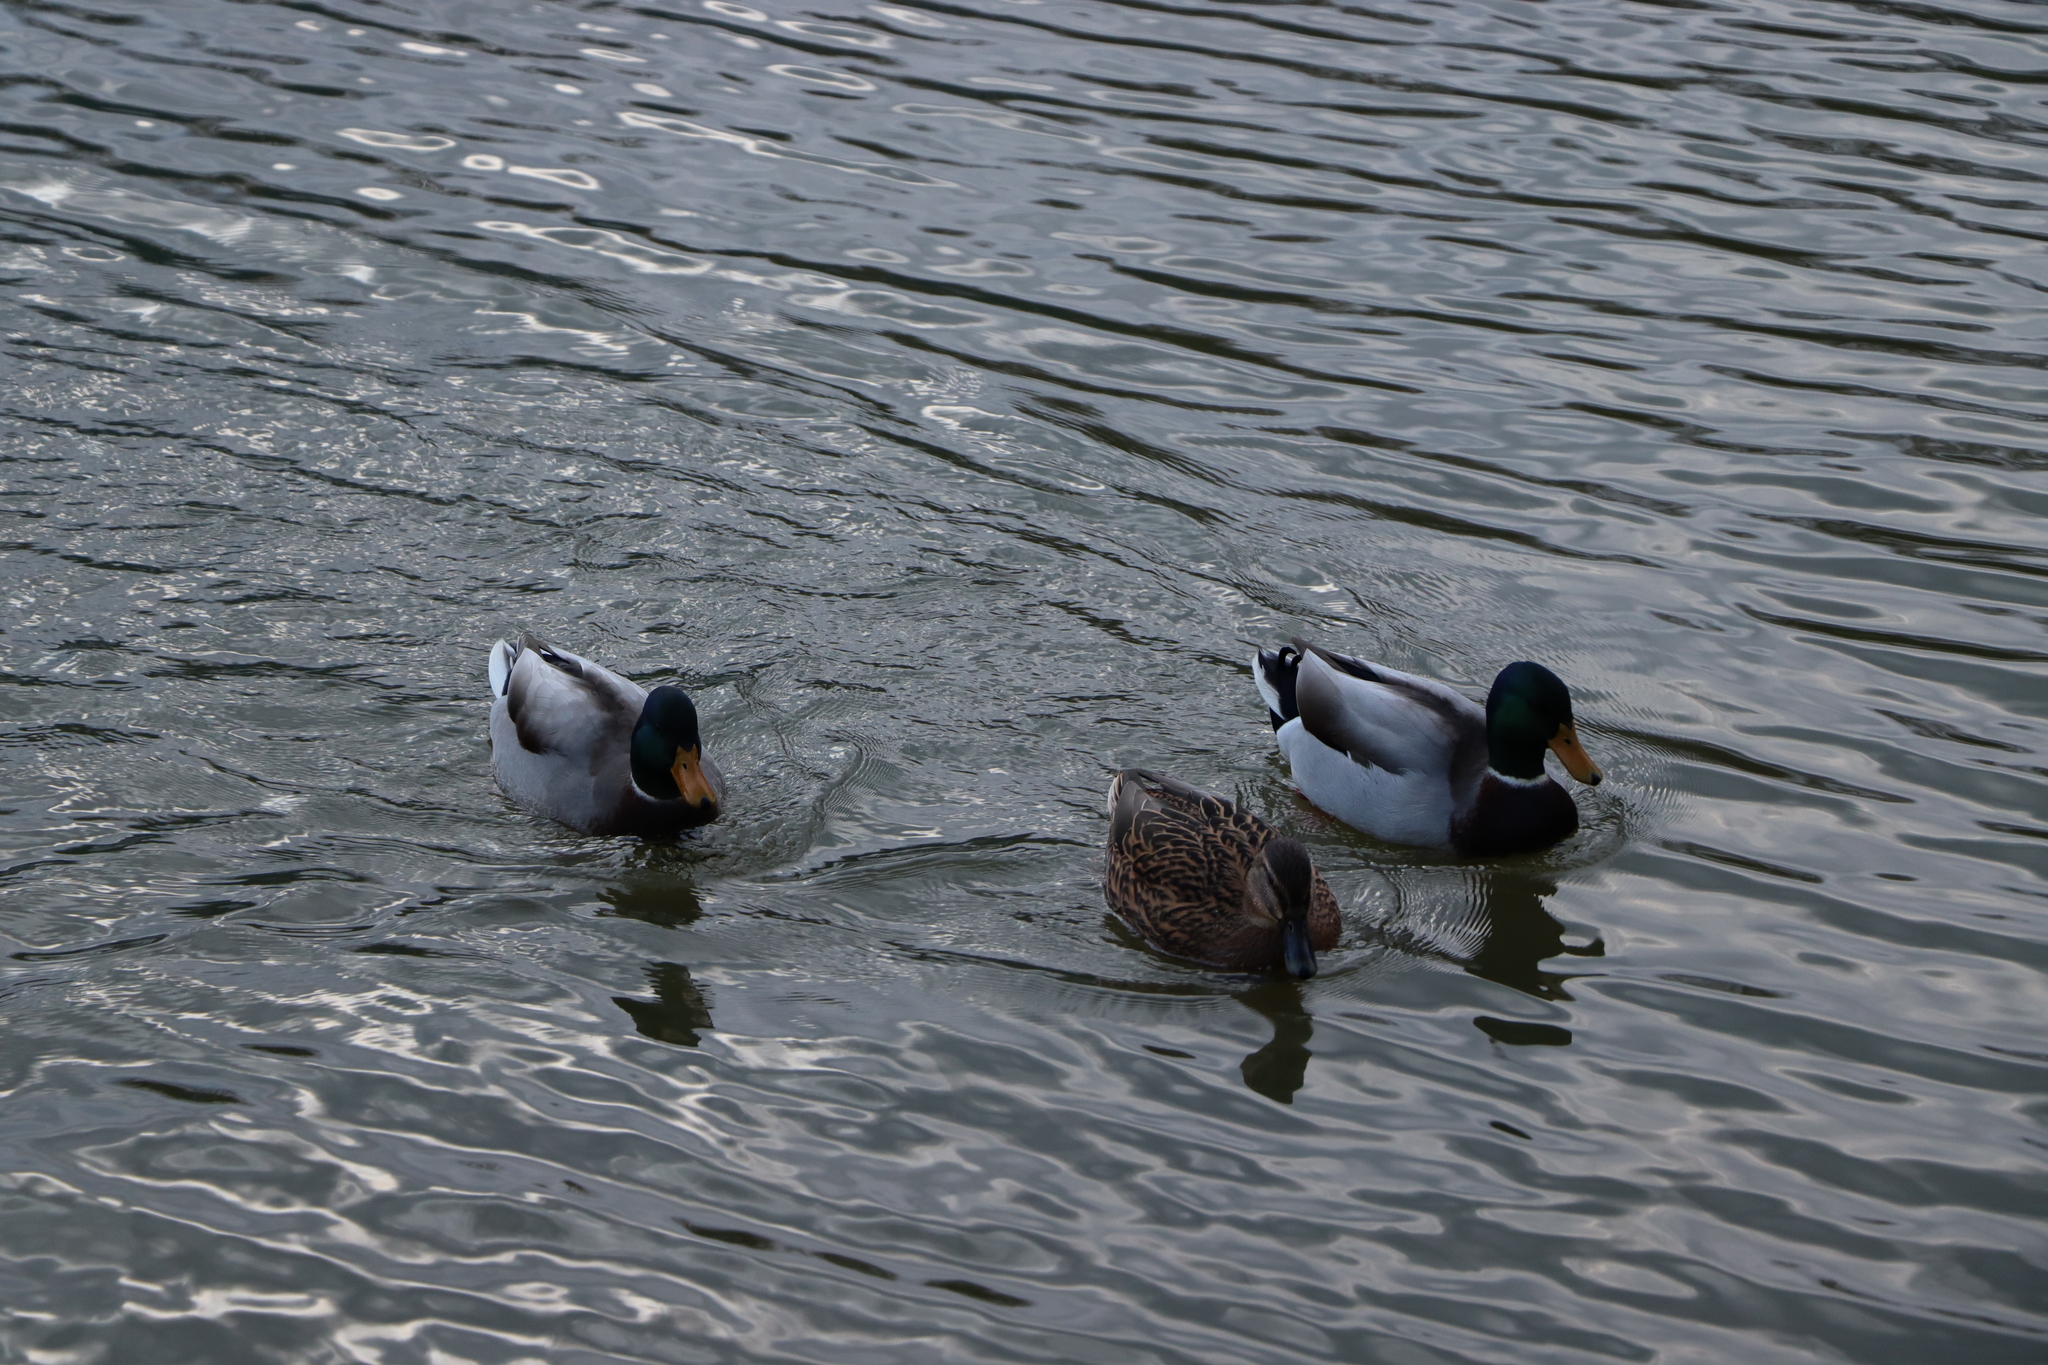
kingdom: Animalia
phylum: Chordata
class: Aves
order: Anseriformes
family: Anatidae
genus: Anas
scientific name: Anas platyrhynchos
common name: Mallard
